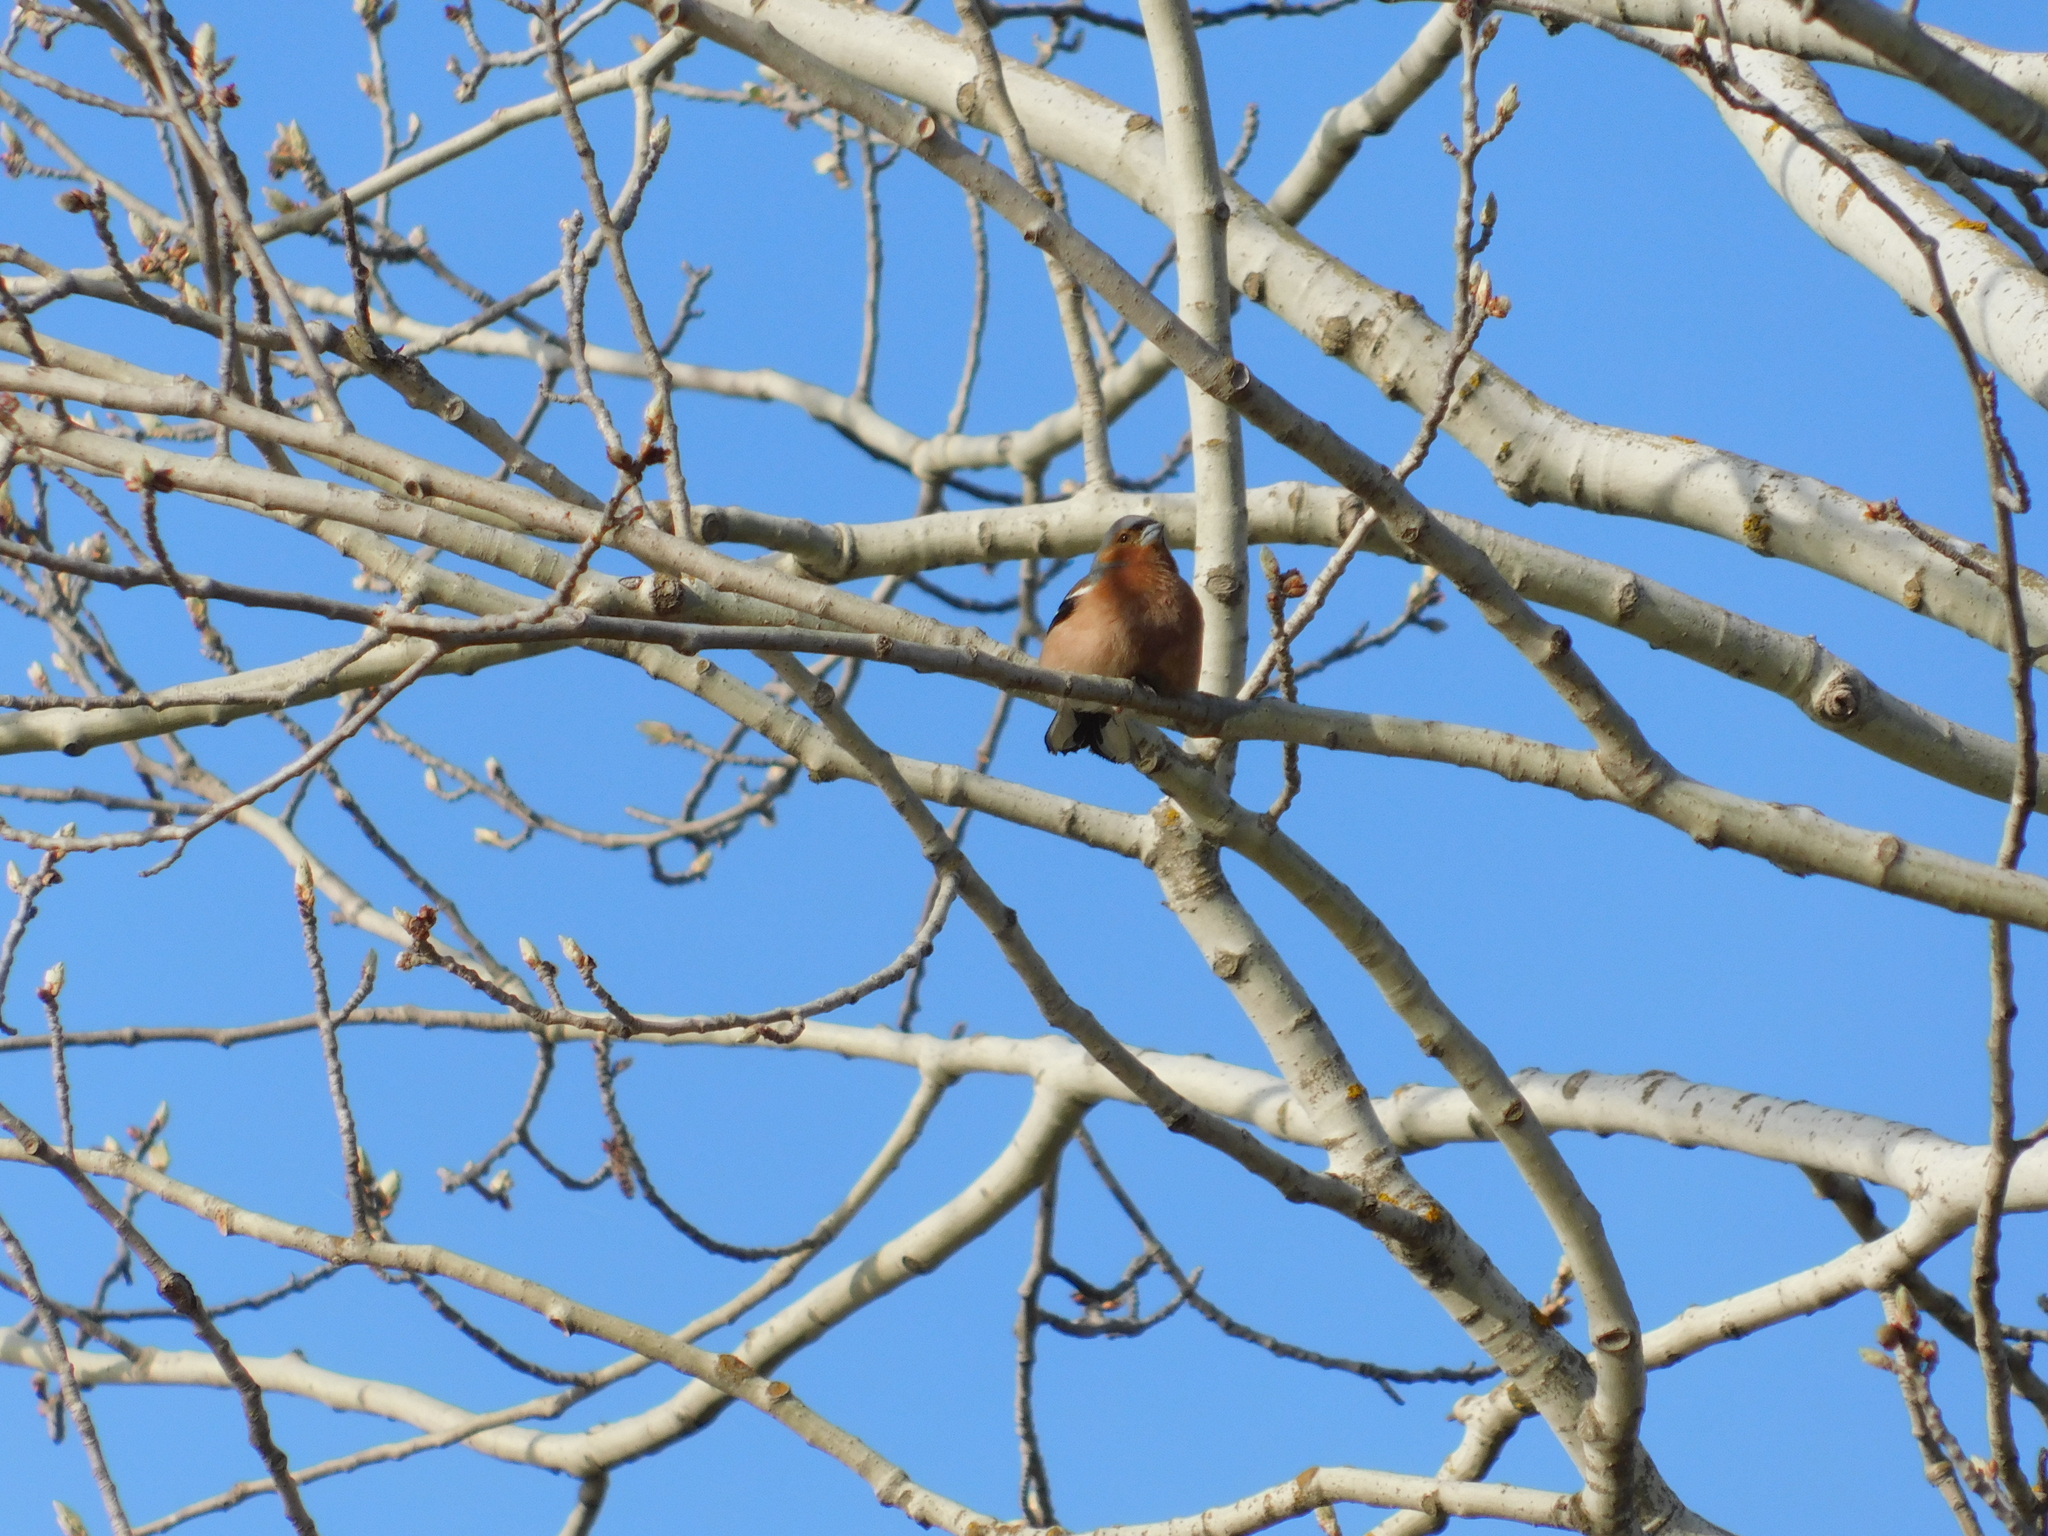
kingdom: Animalia
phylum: Chordata
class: Aves
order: Passeriformes
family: Fringillidae
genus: Fringilla
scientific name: Fringilla coelebs
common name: Common chaffinch
